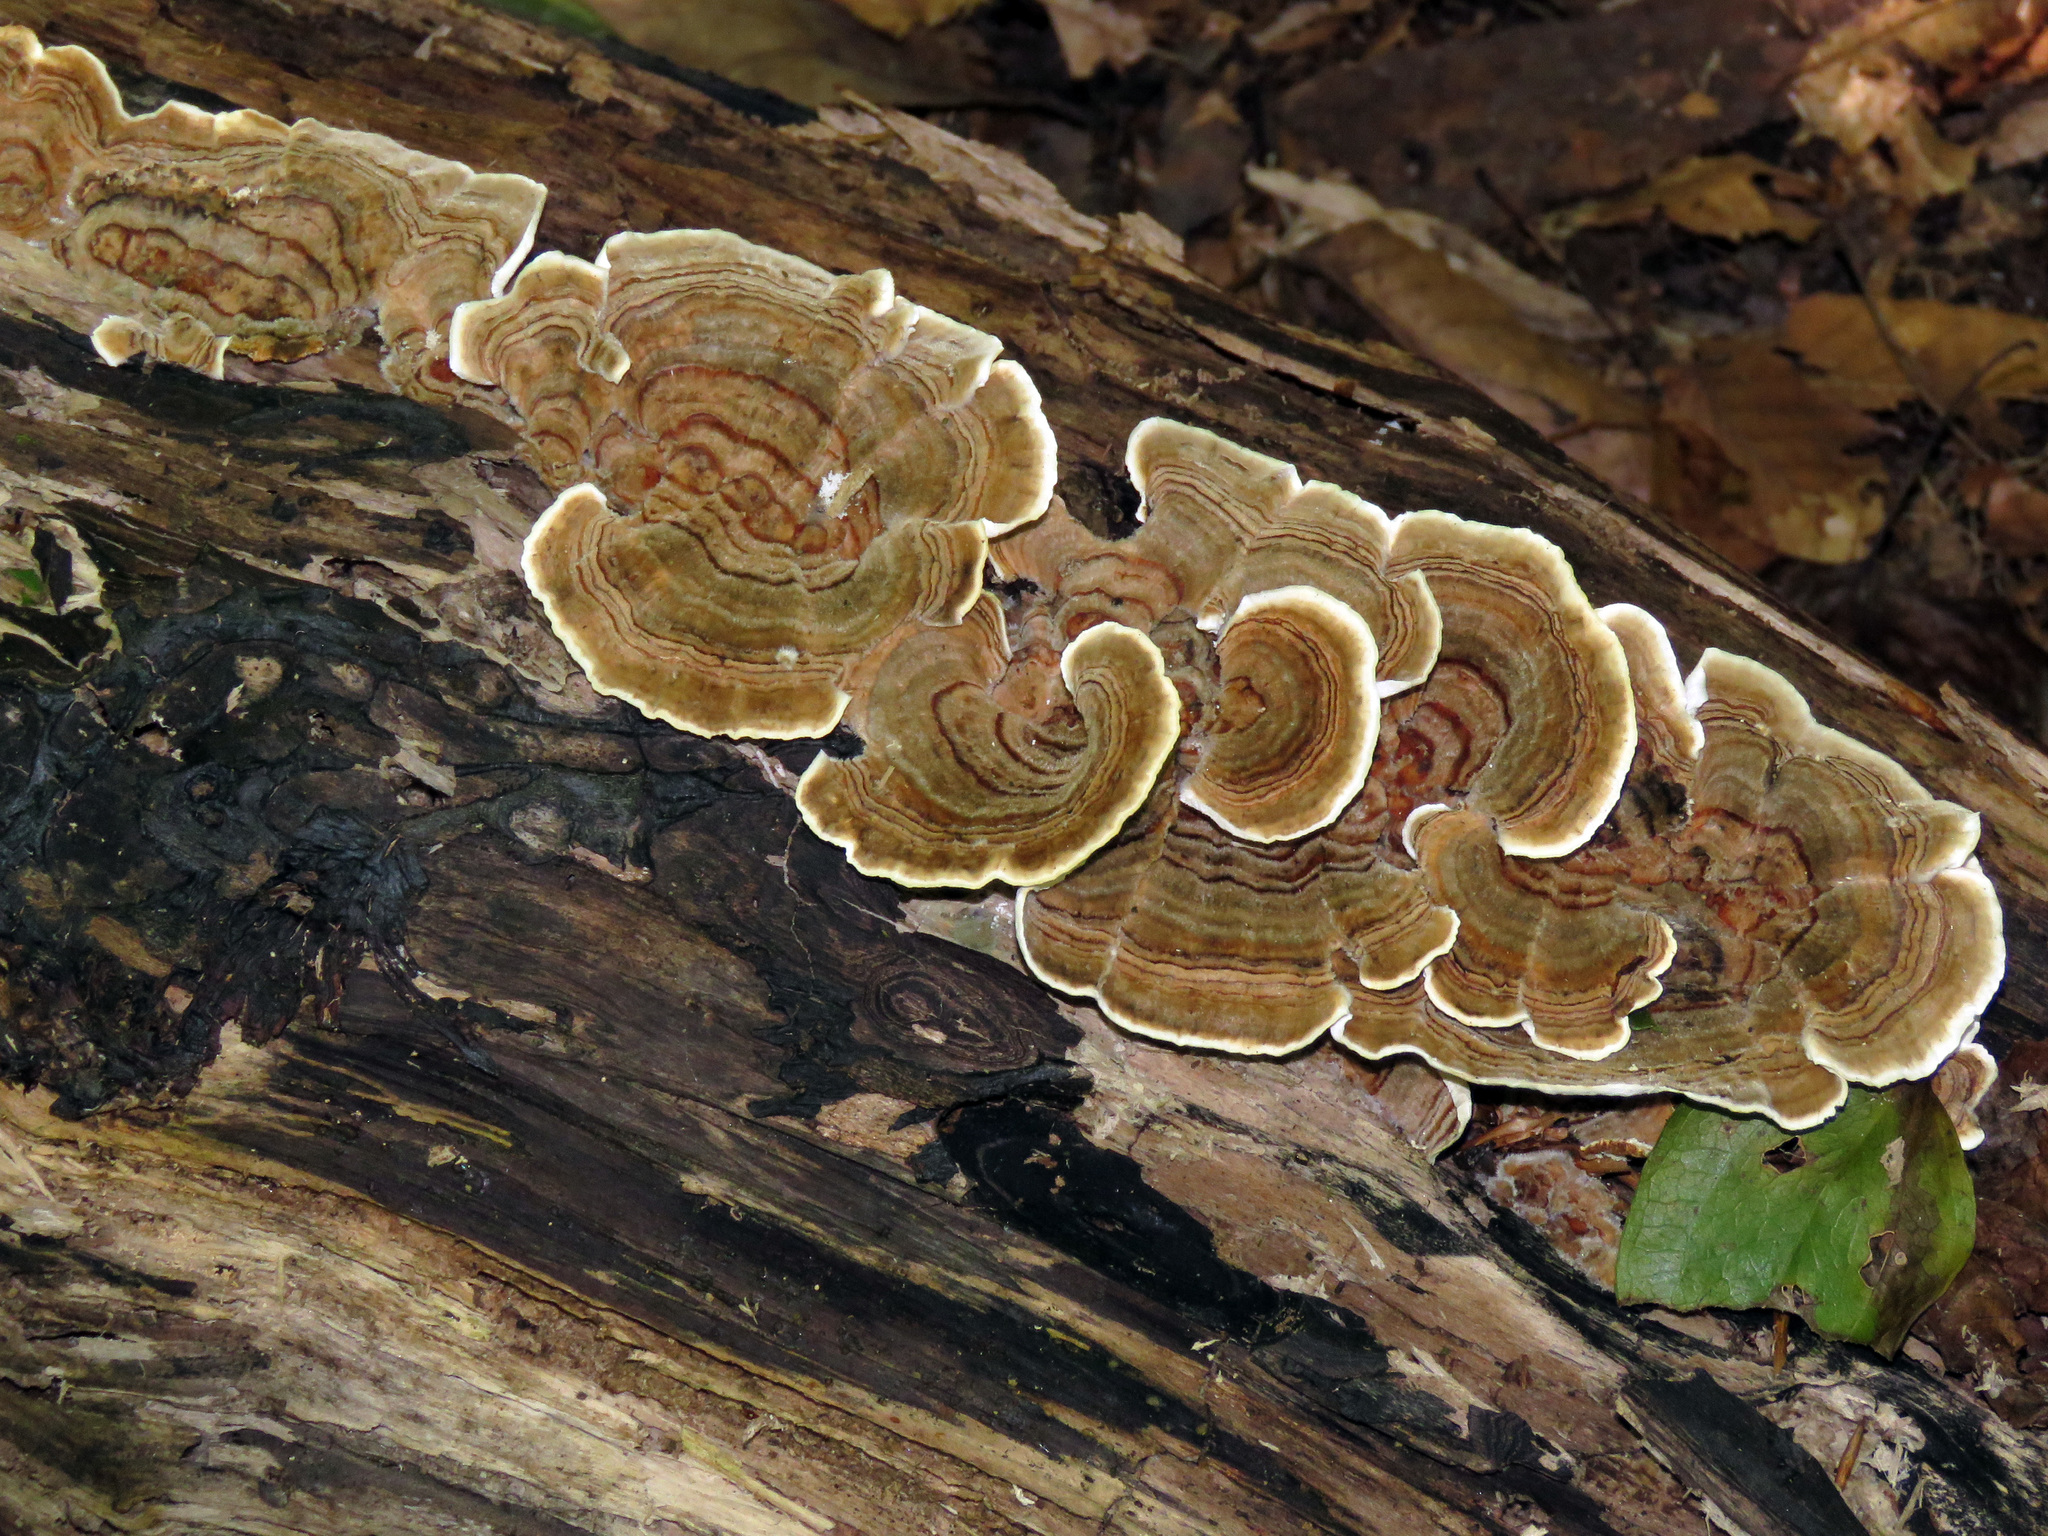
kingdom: Fungi
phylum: Basidiomycota
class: Agaricomycetes
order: Polyporales
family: Polyporaceae
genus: Trametes
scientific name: Trametes versicolor
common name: Turkeytail
